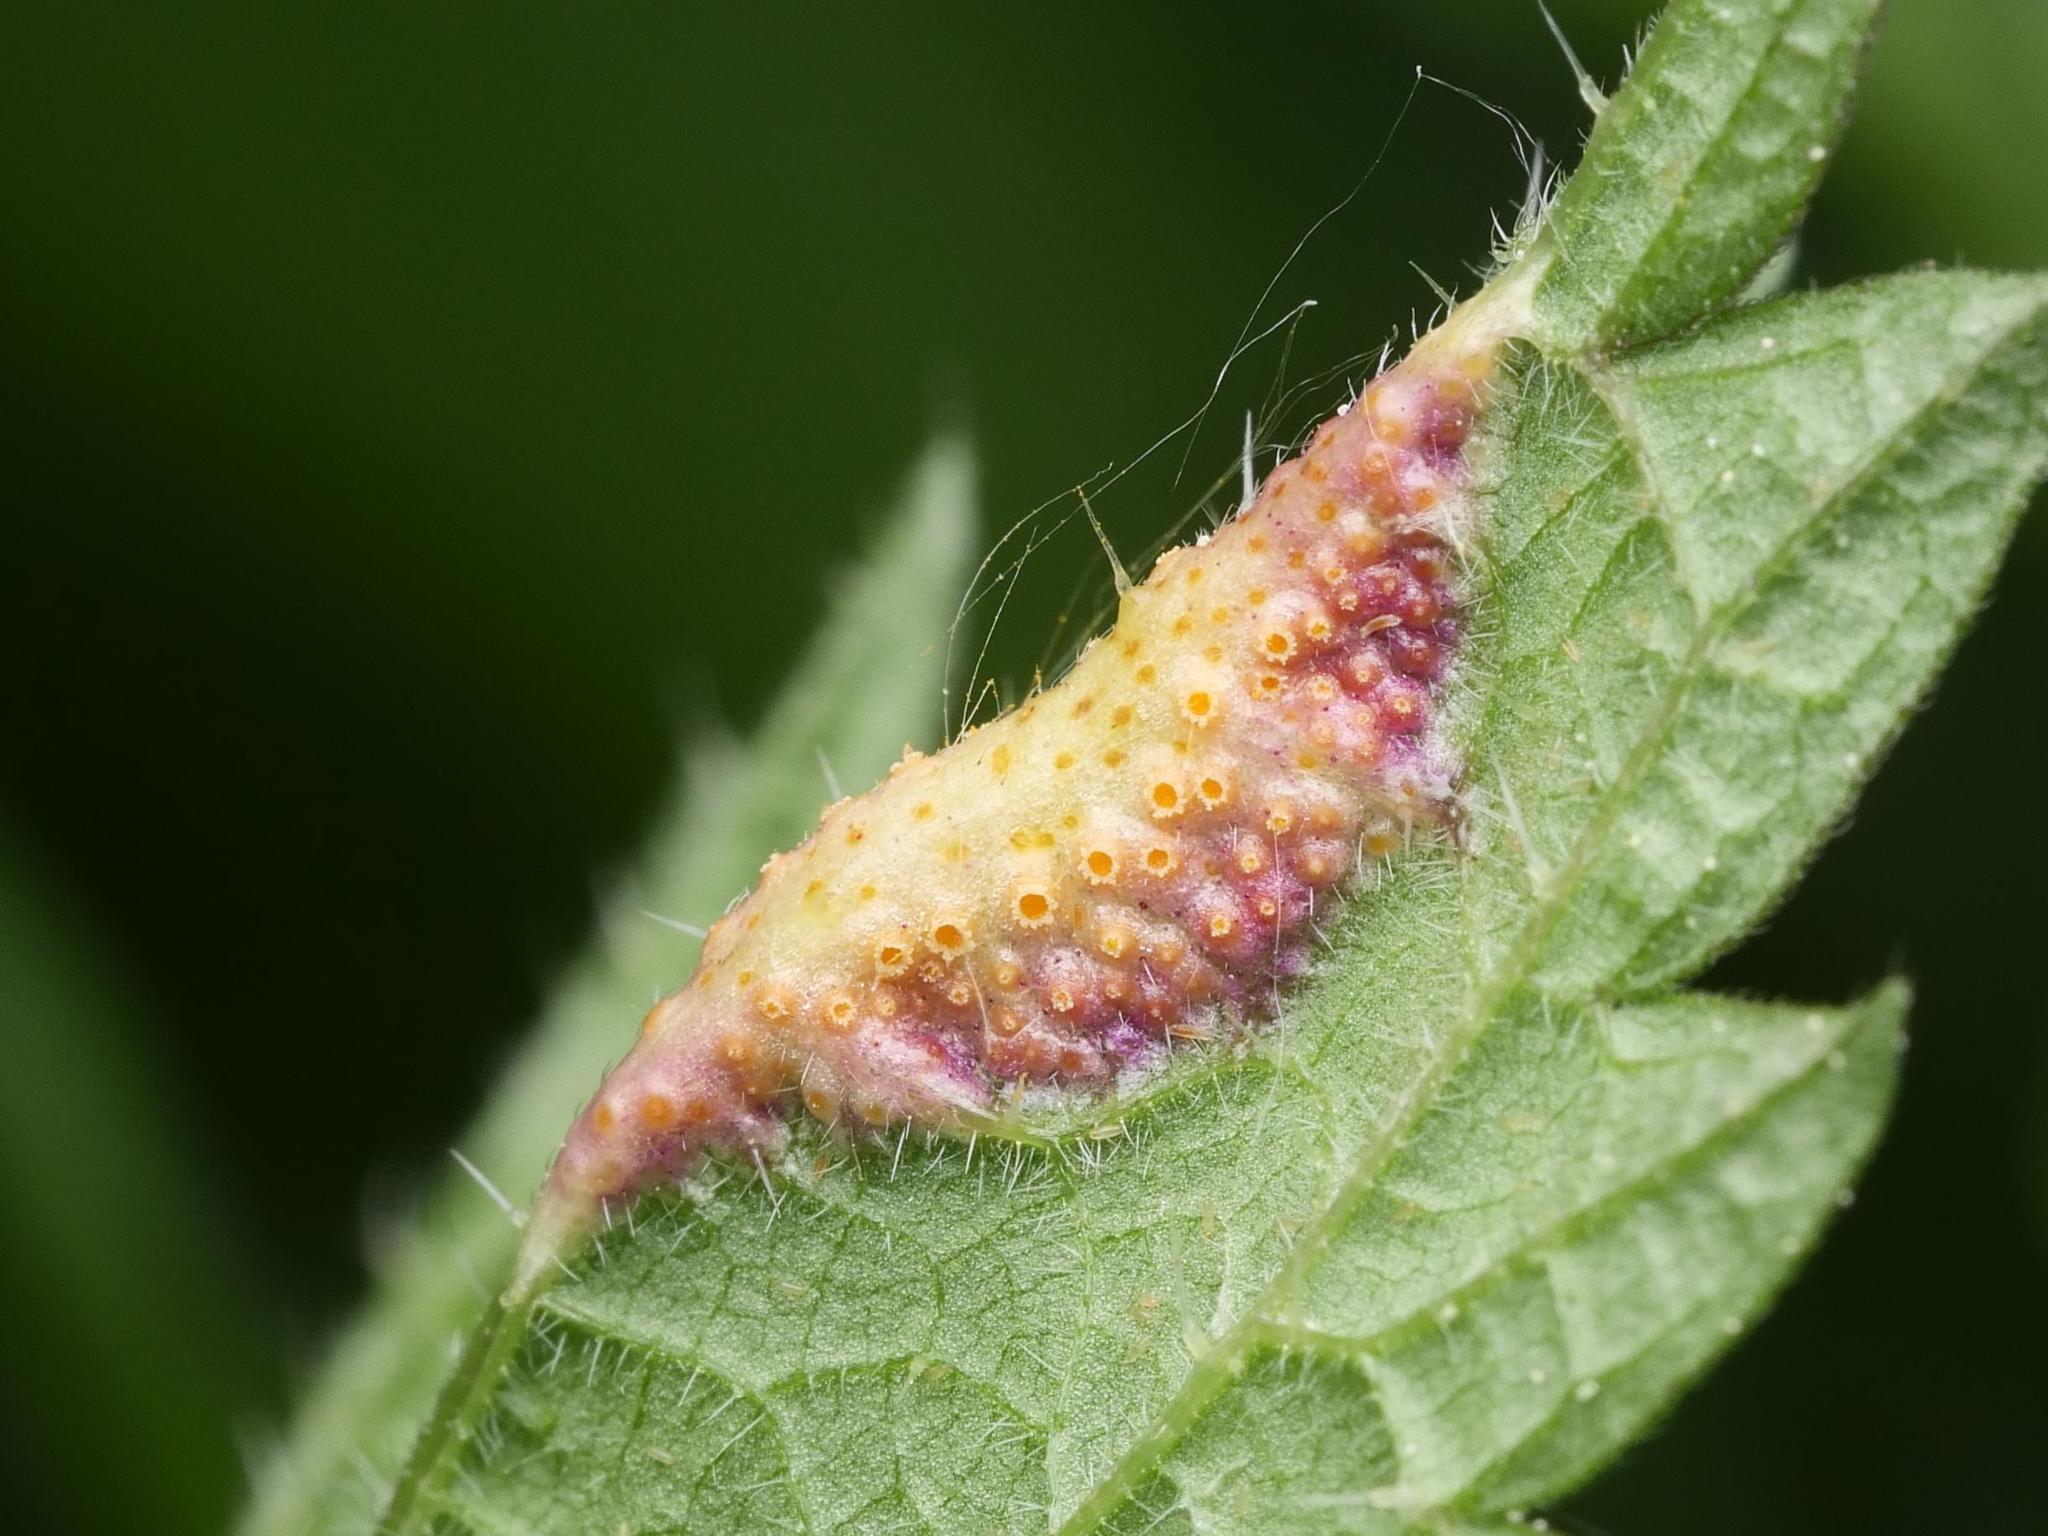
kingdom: Fungi
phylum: Basidiomycota
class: Pucciniomycetes
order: Pucciniales
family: Pucciniaceae
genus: Puccinia
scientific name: Puccinia urticata
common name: Nettle clustercup rust fungus
